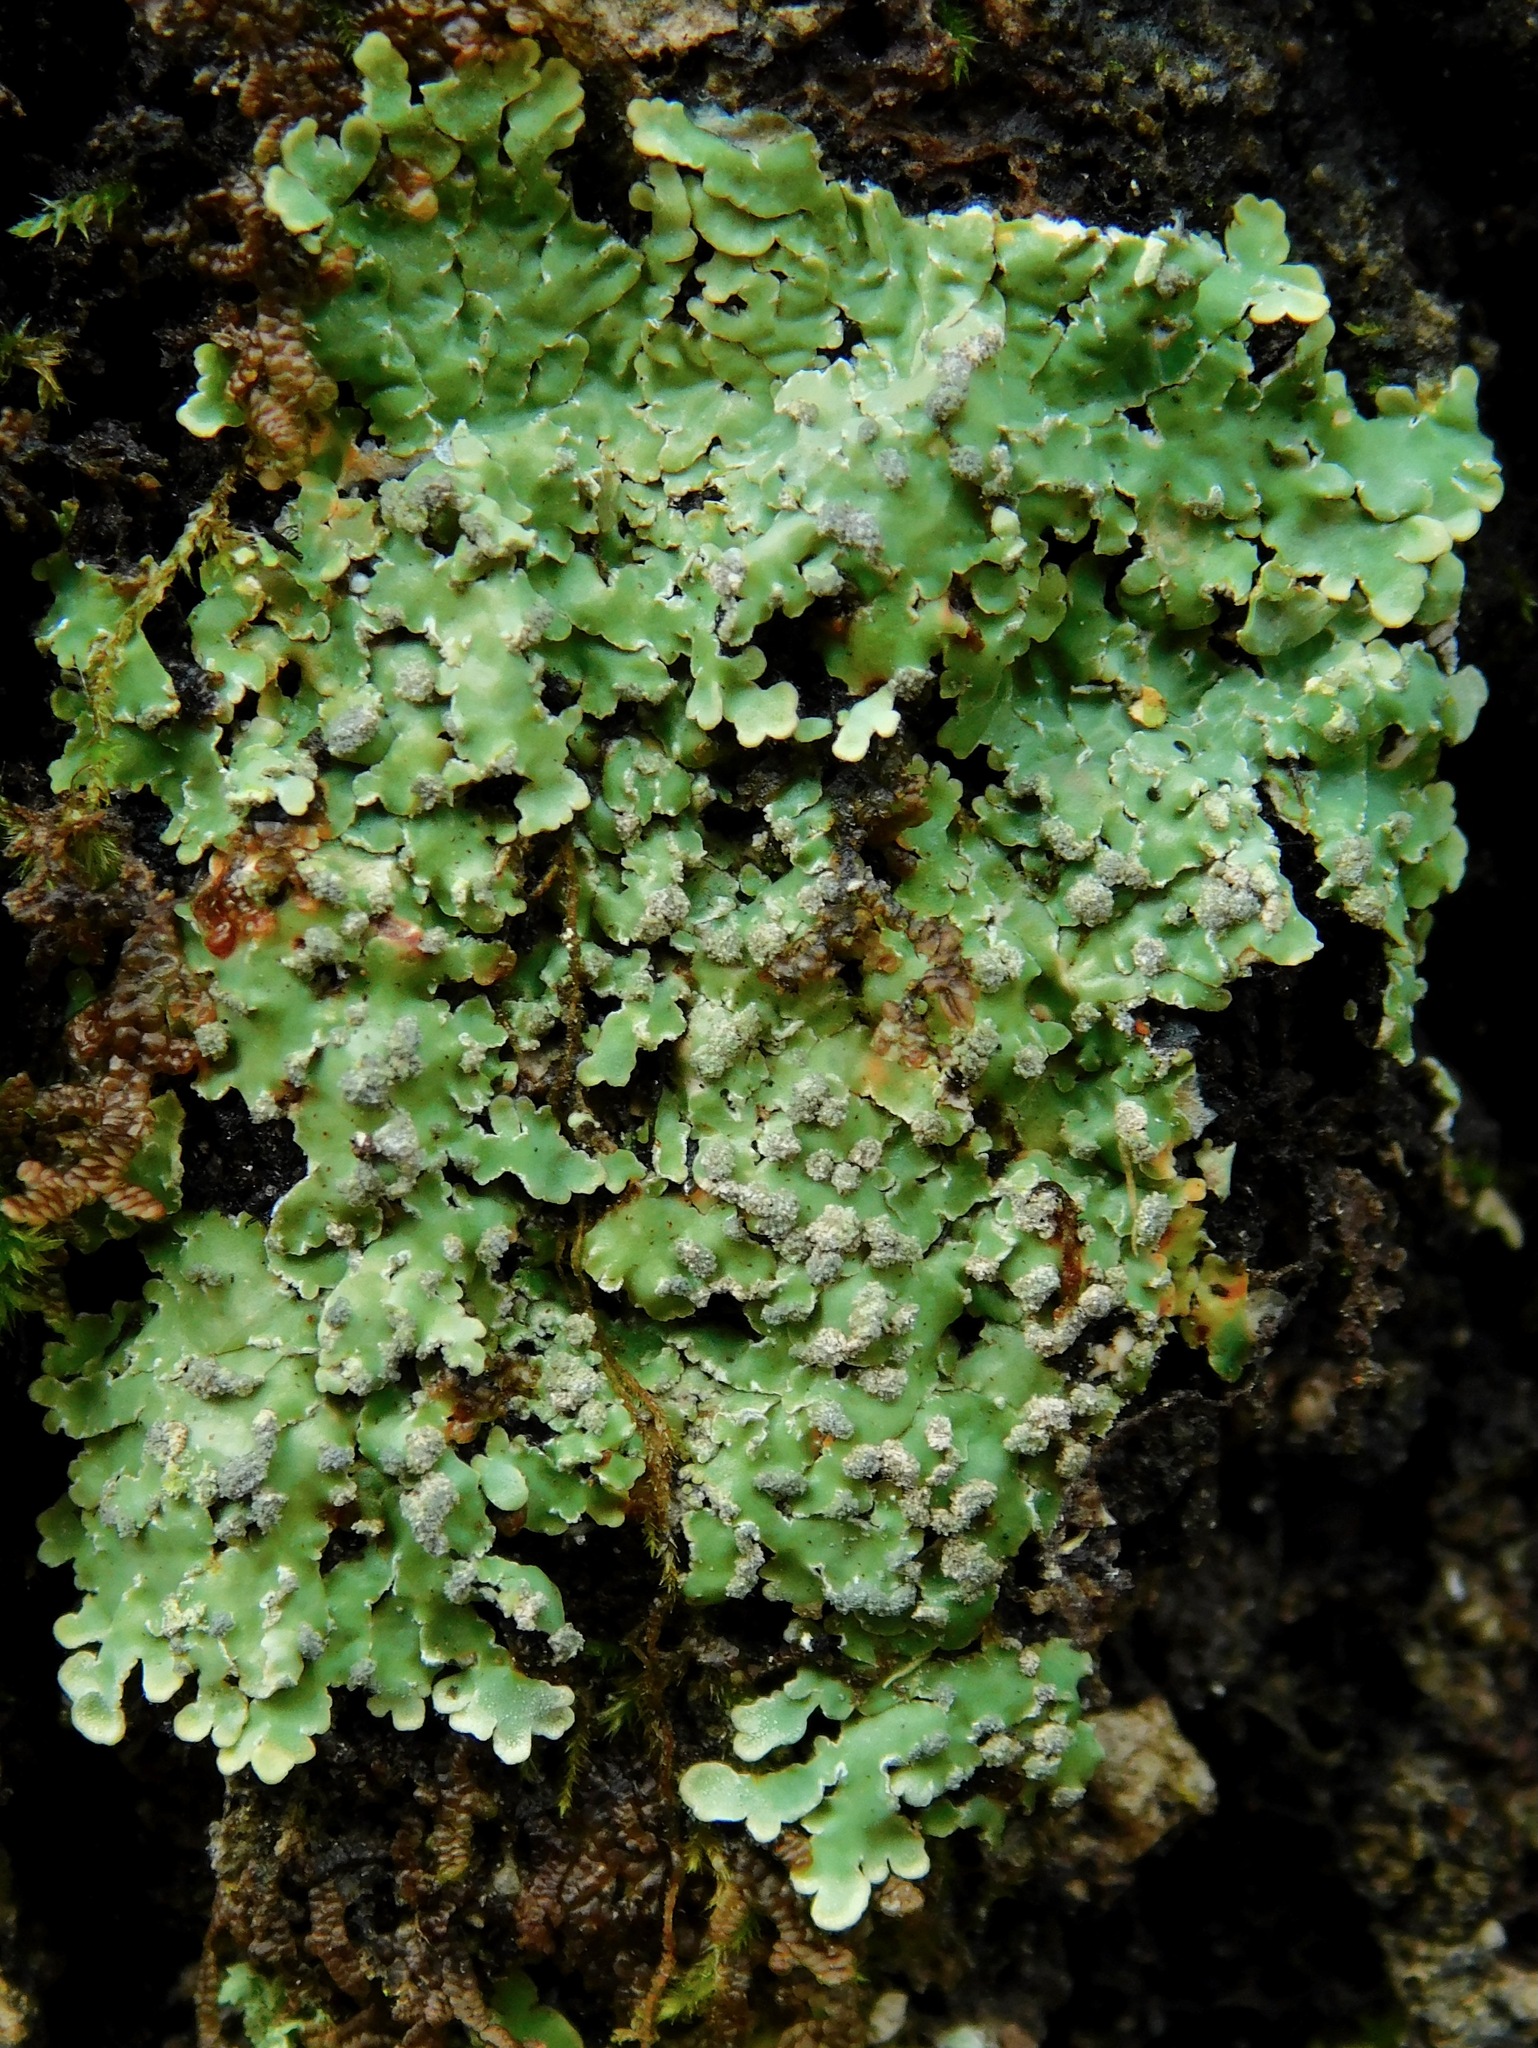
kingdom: Fungi
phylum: Ascomycota
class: Lecanoromycetes
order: Caliciales
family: Caliciaceae
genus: Pyxine
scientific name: Pyxine albovirens
